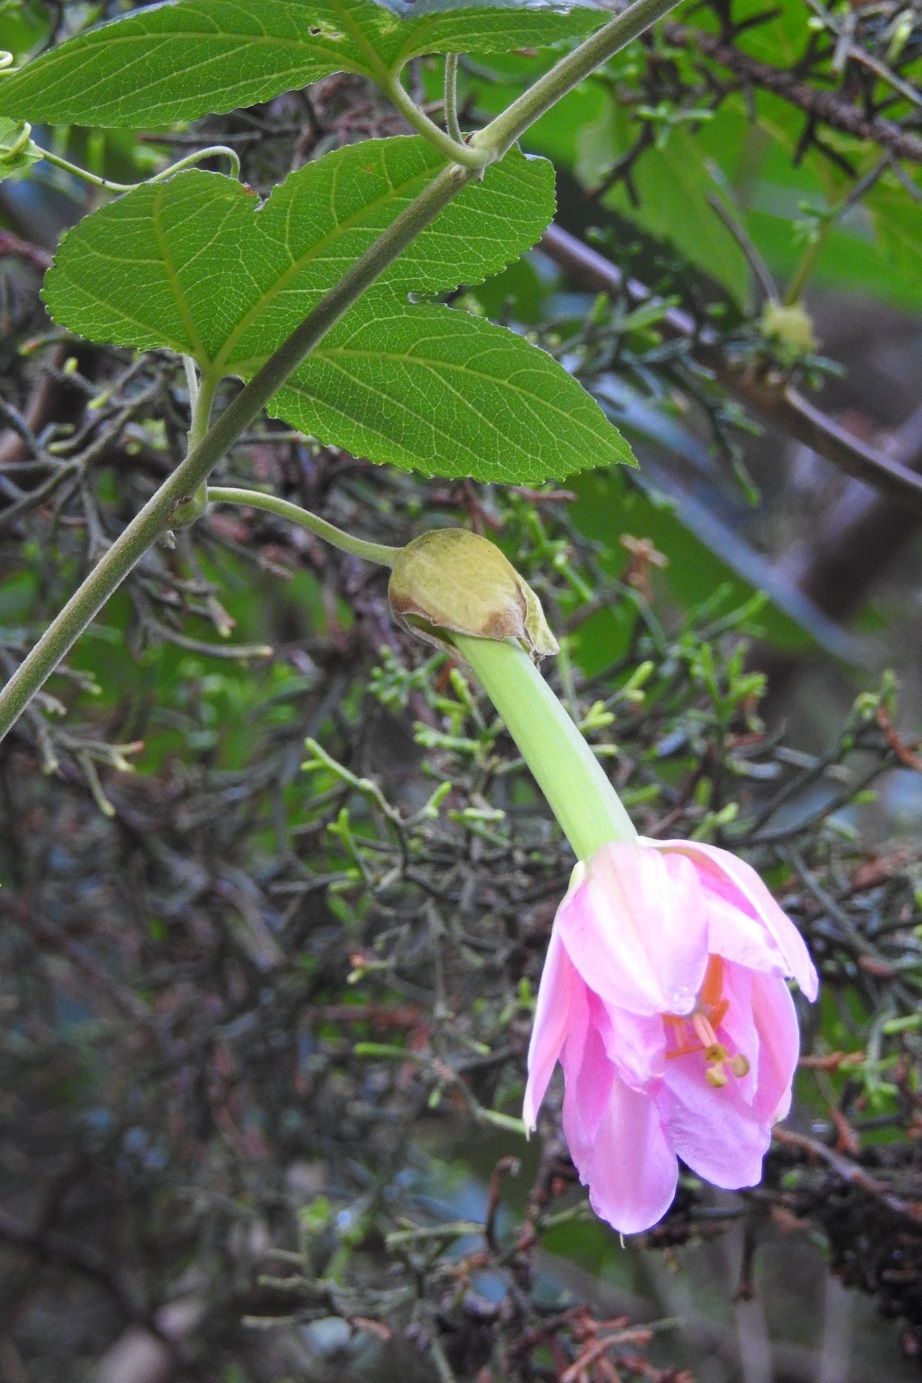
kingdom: Plantae
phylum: Tracheophyta
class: Magnoliopsida
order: Malpighiales
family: Passifloraceae
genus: Passiflora
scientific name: Passiflora tarminiana
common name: Banana poka
